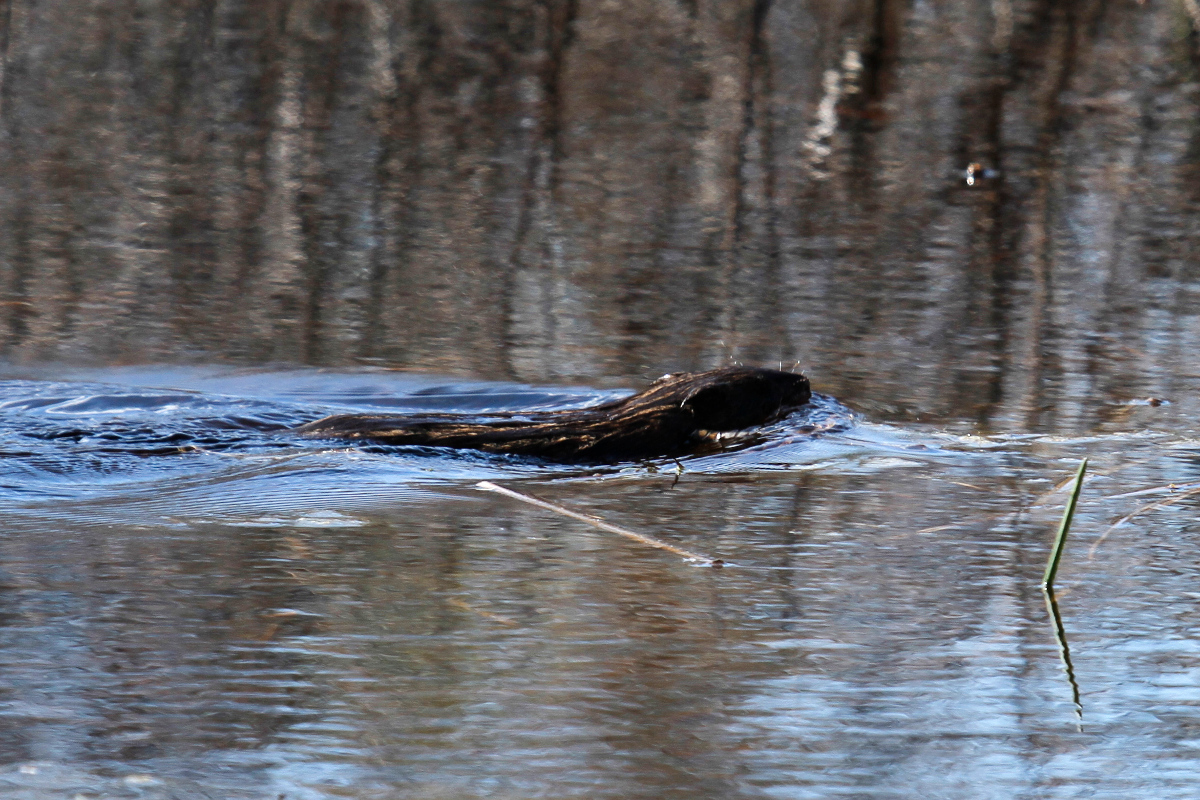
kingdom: Animalia
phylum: Chordata
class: Mammalia
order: Rodentia
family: Cricetidae
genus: Ondatra
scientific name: Ondatra zibethicus
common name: Muskrat
